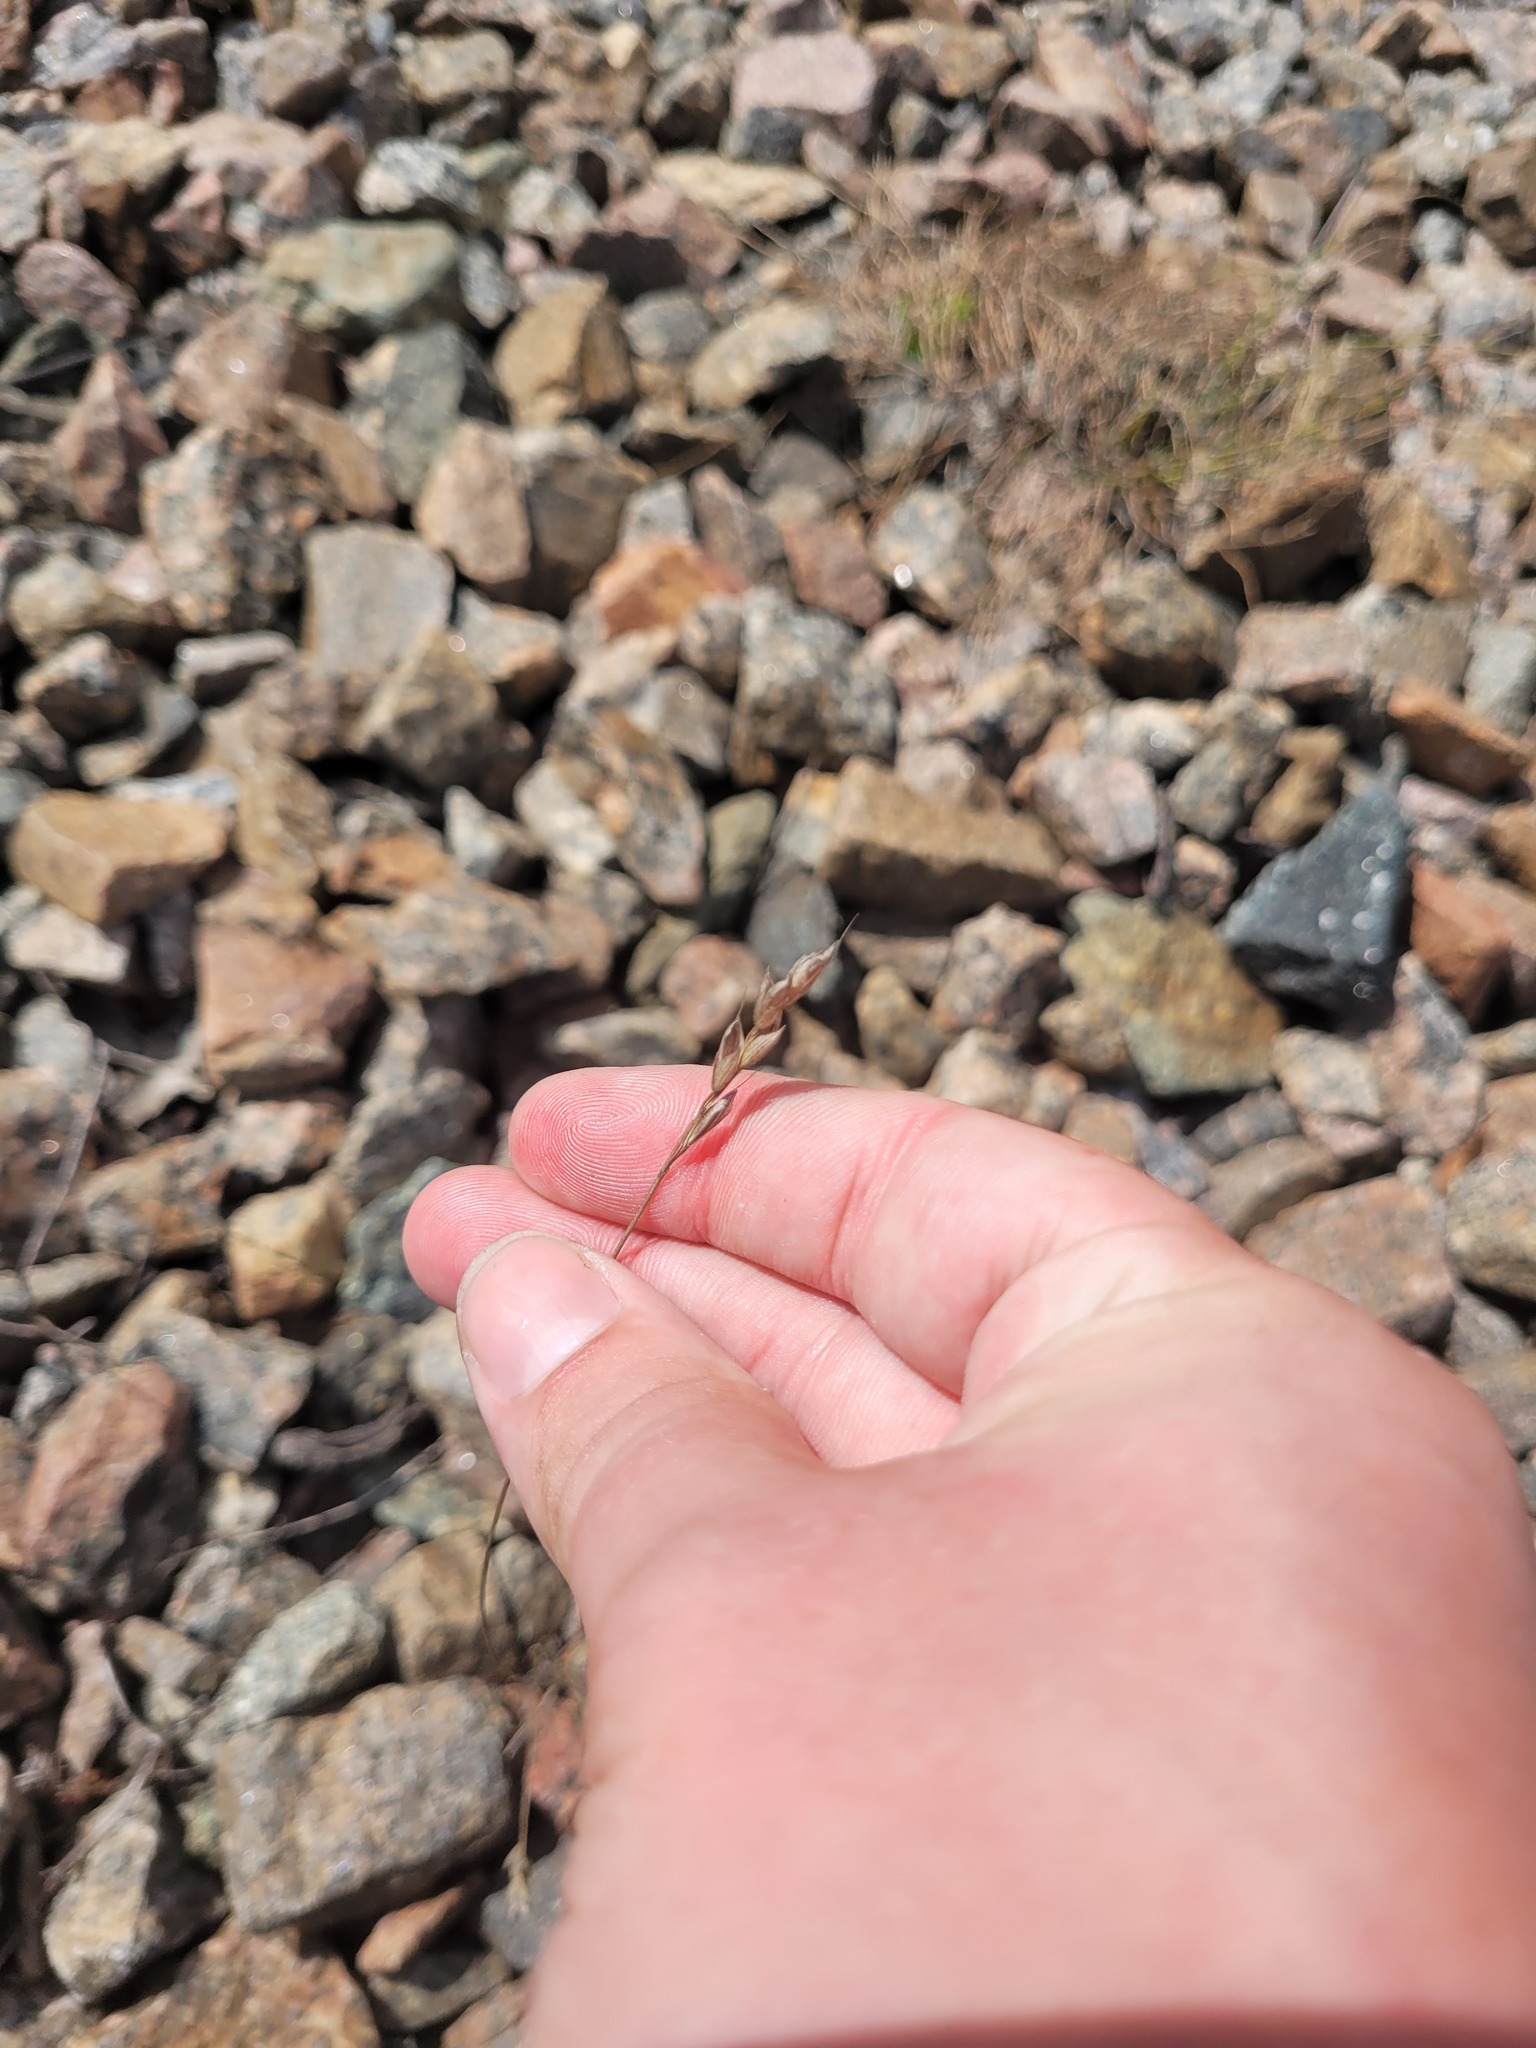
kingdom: Plantae
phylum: Tracheophyta
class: Liliopsida
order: Poales
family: Poaceae
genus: Bromus
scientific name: Bromus hordeaceus
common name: Soft brome
